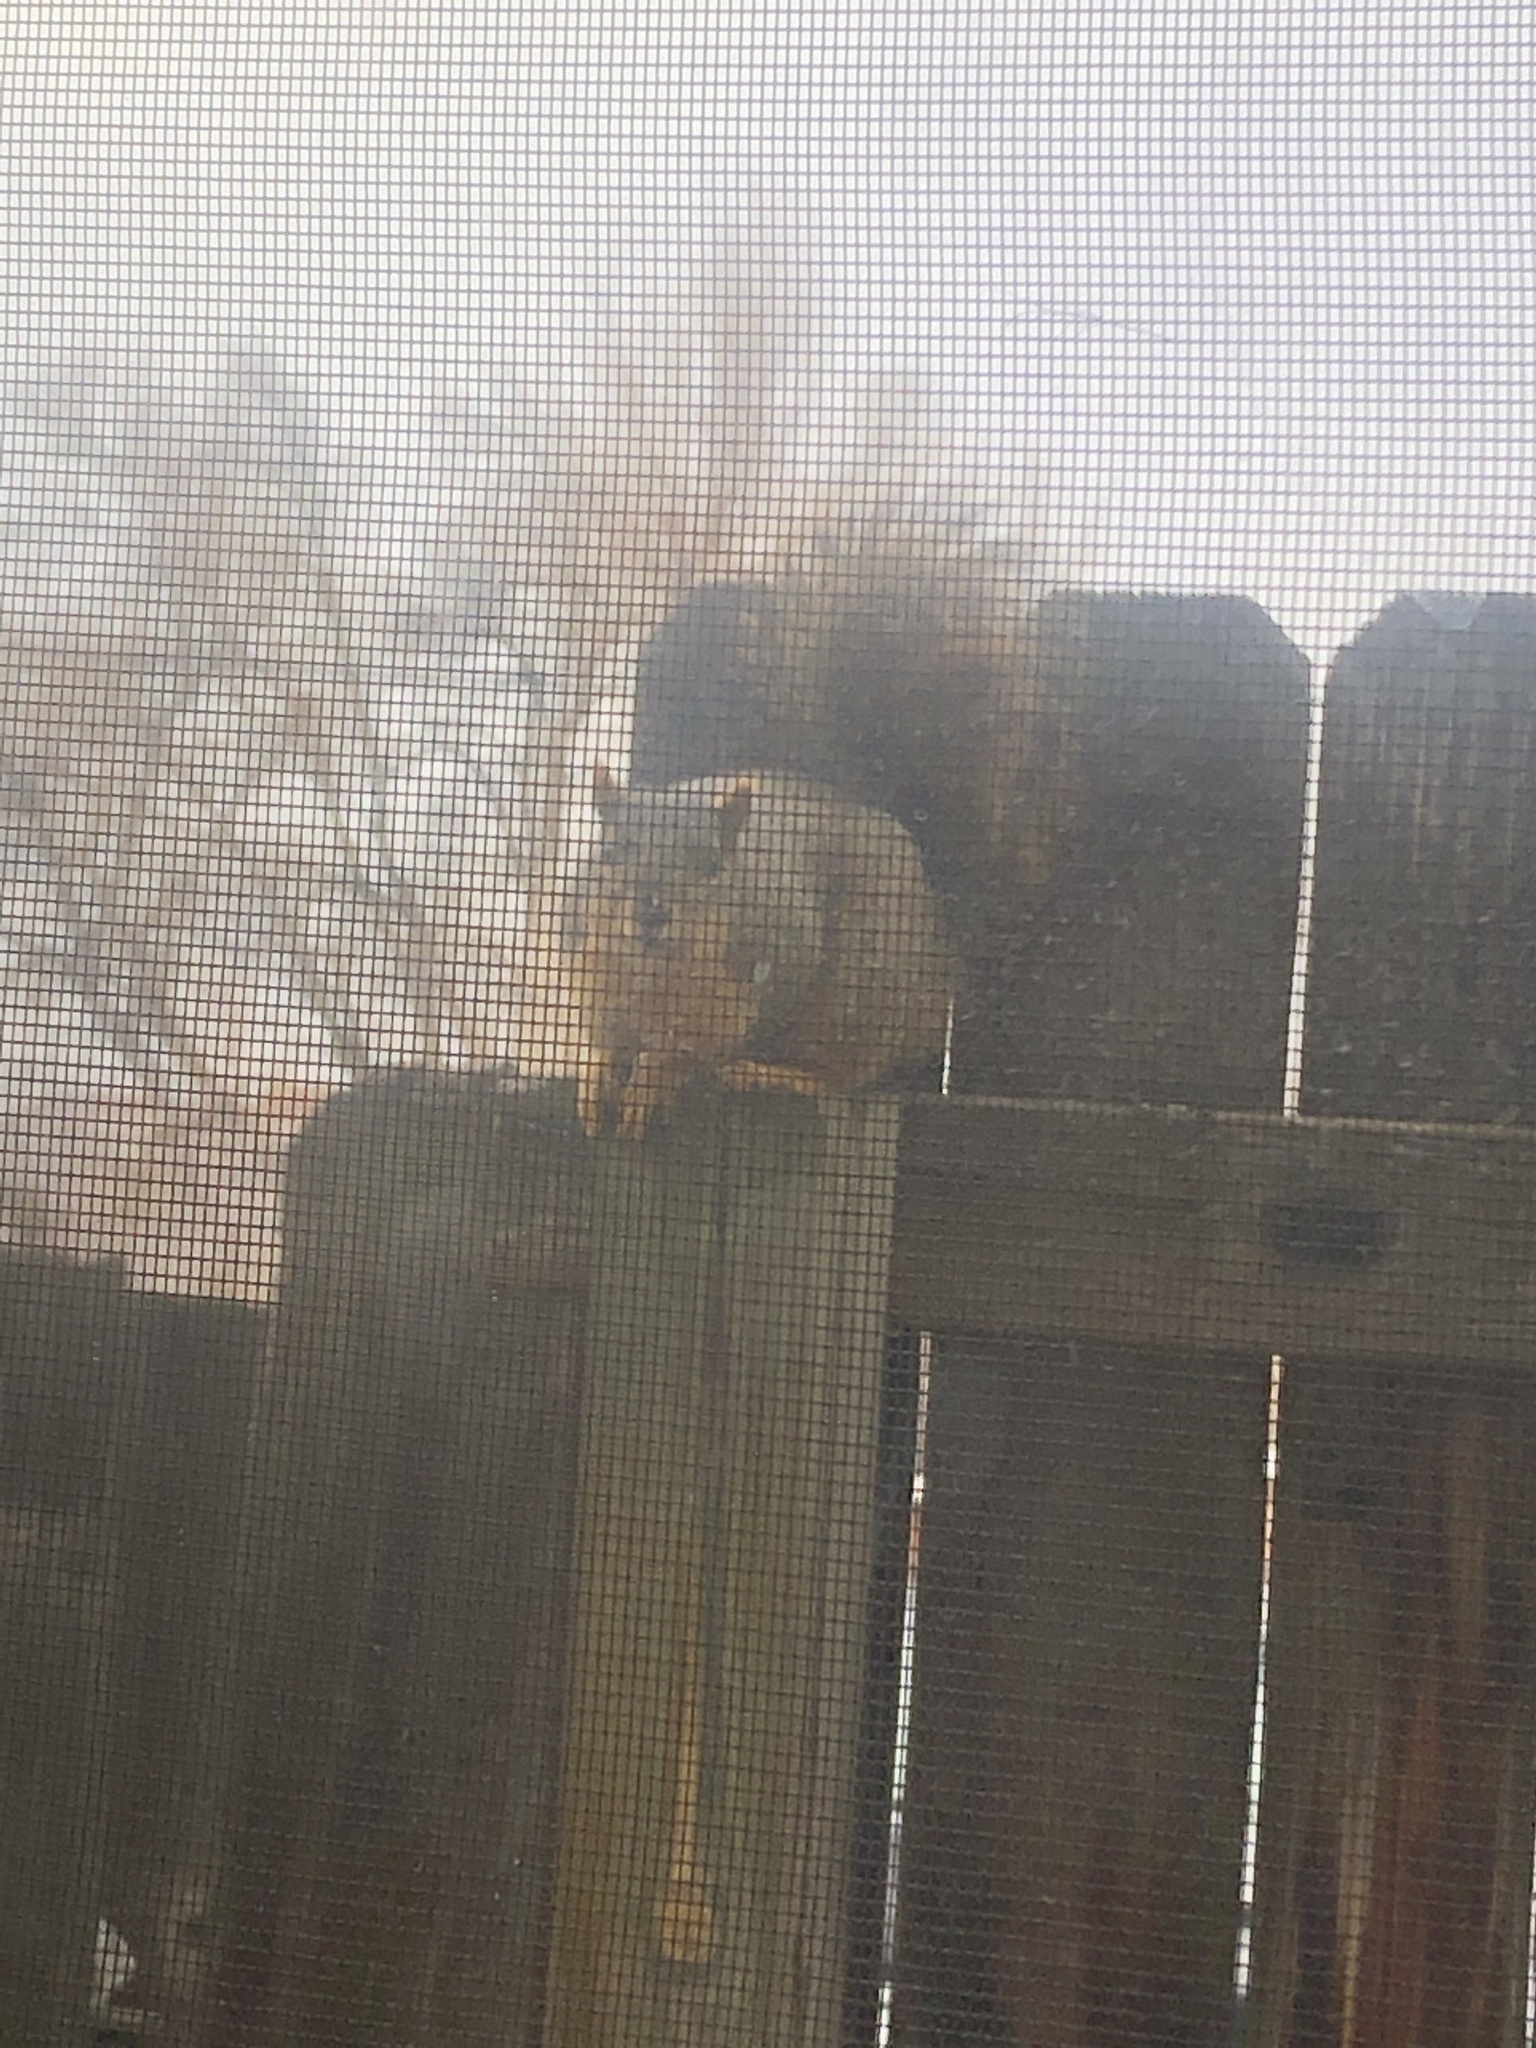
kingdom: Animalia
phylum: Chordata
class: Mammalia
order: Rodentia
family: Sciuridae
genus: Sciurus
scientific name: Sciurus niger
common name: Fox squirrel
